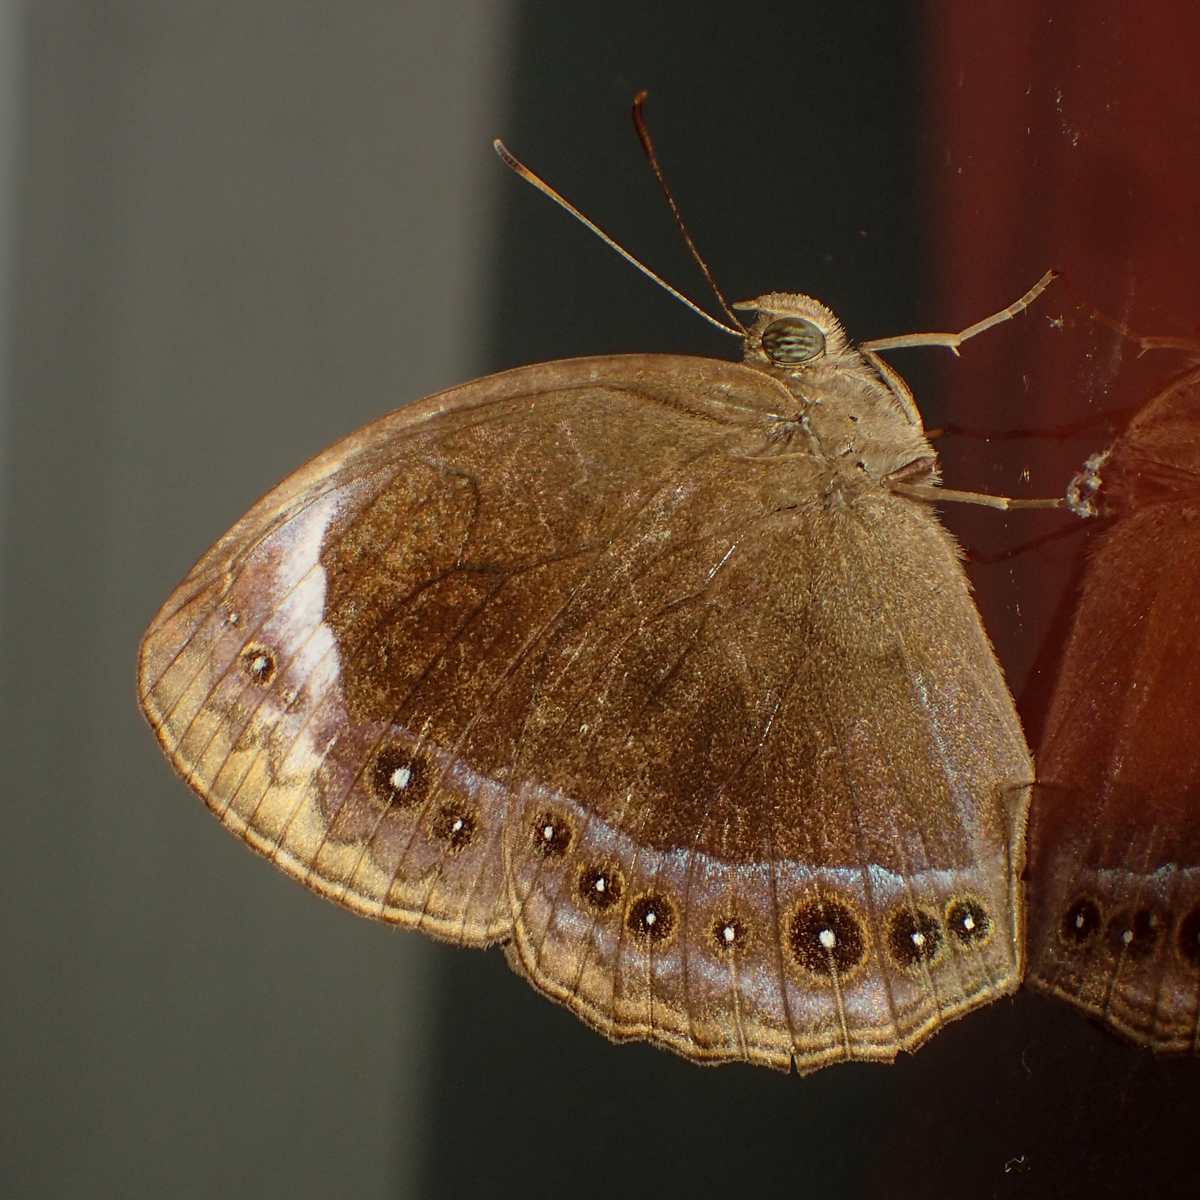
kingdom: Animalia
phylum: Arthropoda
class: Insecta
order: Lepidoptera
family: Nymphalidae
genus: Mycalesis
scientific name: Mycalesis anaxioides
